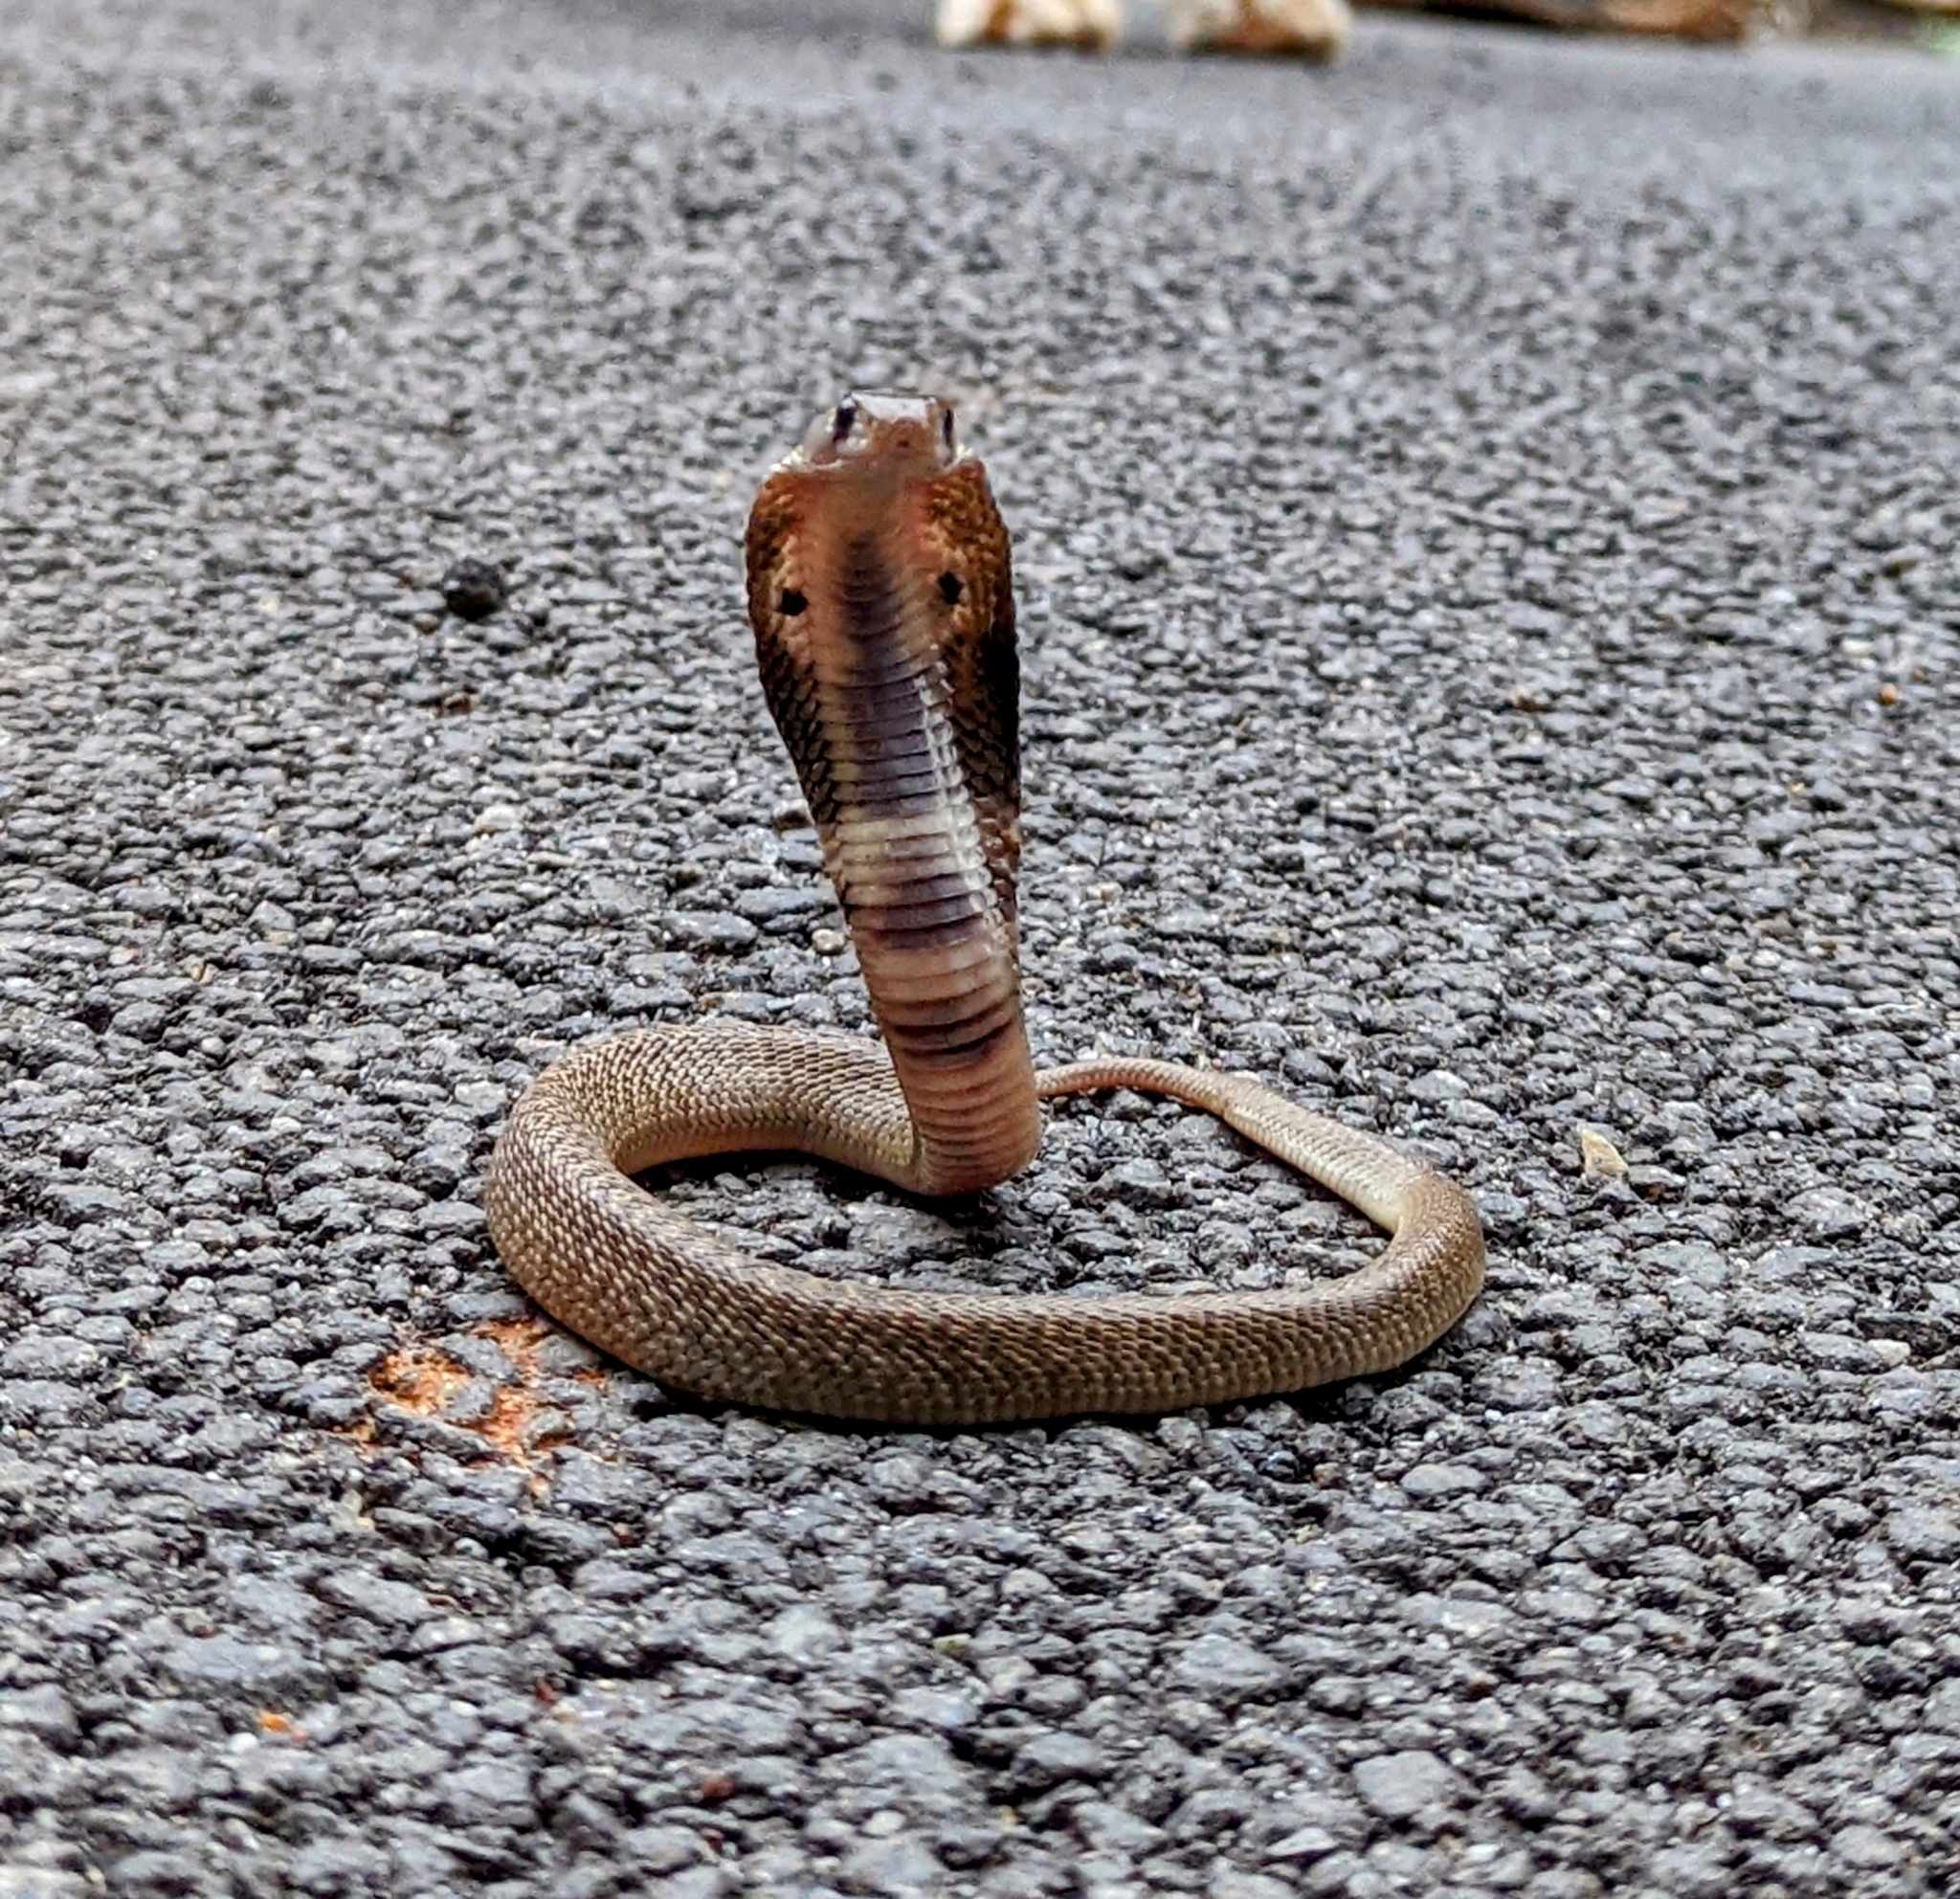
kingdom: Animalia
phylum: Chordata
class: Squamata
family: Elapidae
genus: Naja
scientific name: Naja naja
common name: Indian cobra
